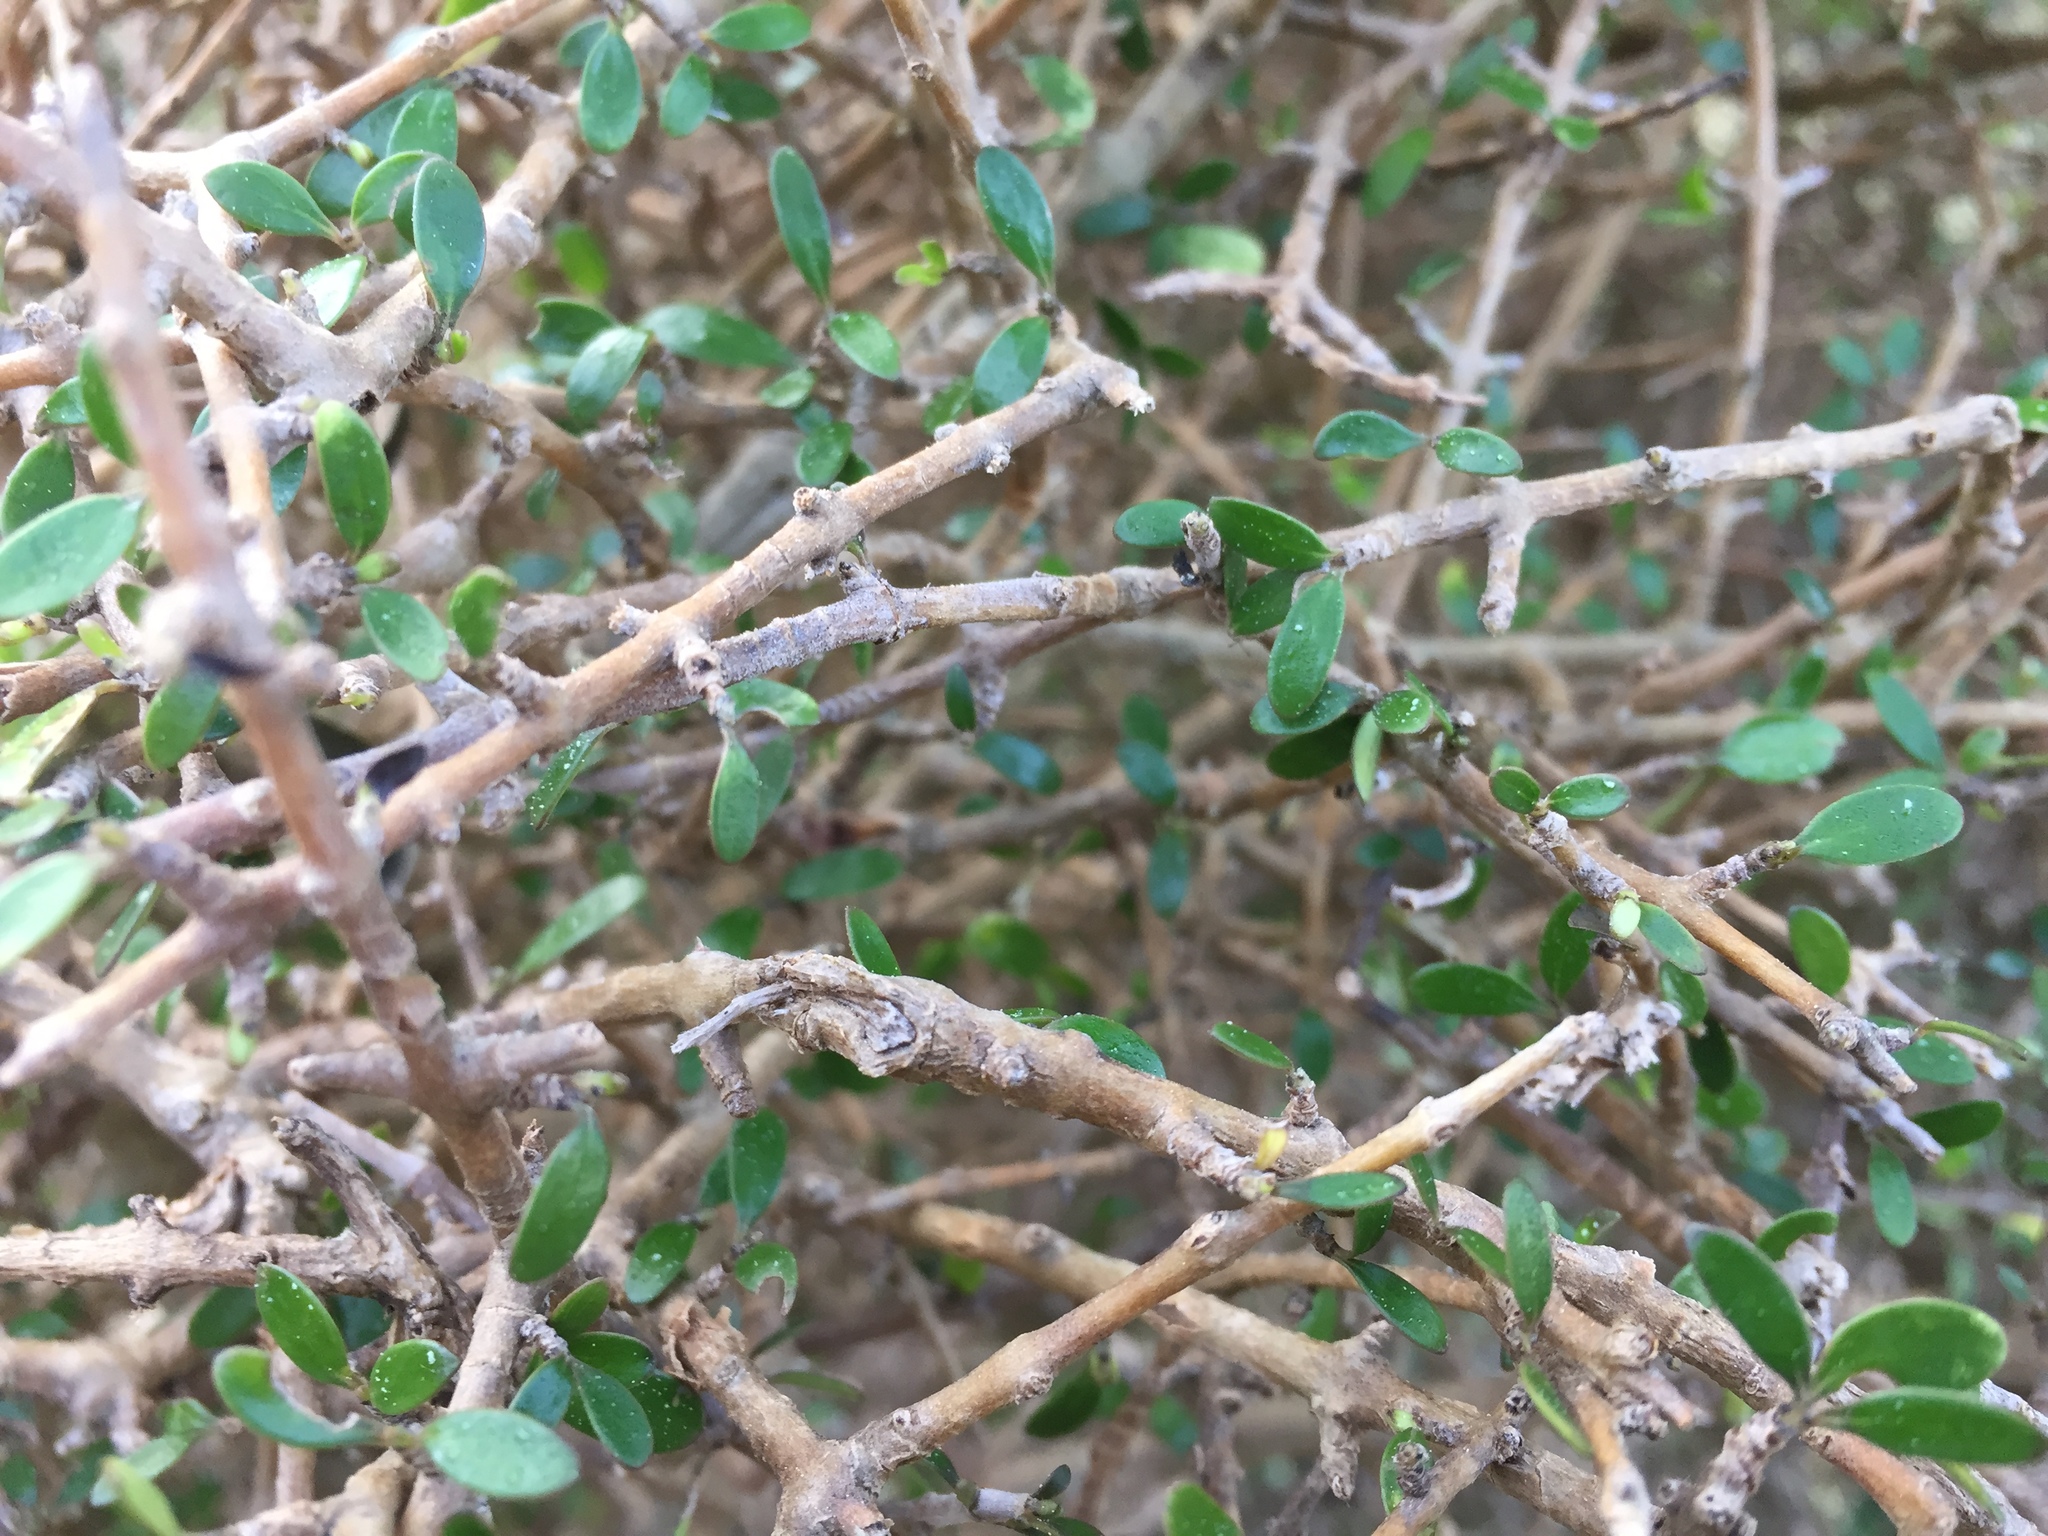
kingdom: Plantae
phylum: Tracheophyta
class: Magnoliopsida
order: Gentianales
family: Rubiaceae
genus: Coprosma
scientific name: Coprosma propinqua
